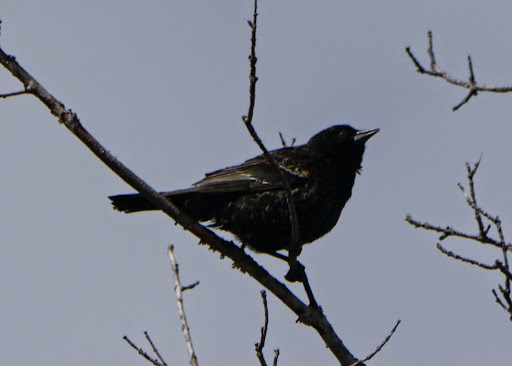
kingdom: Animalia
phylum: Chordata
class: Aves
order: Passeriformes
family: Icteridae
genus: Agelaius
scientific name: Agelaius phoeniceus
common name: Red-winged blackbird
